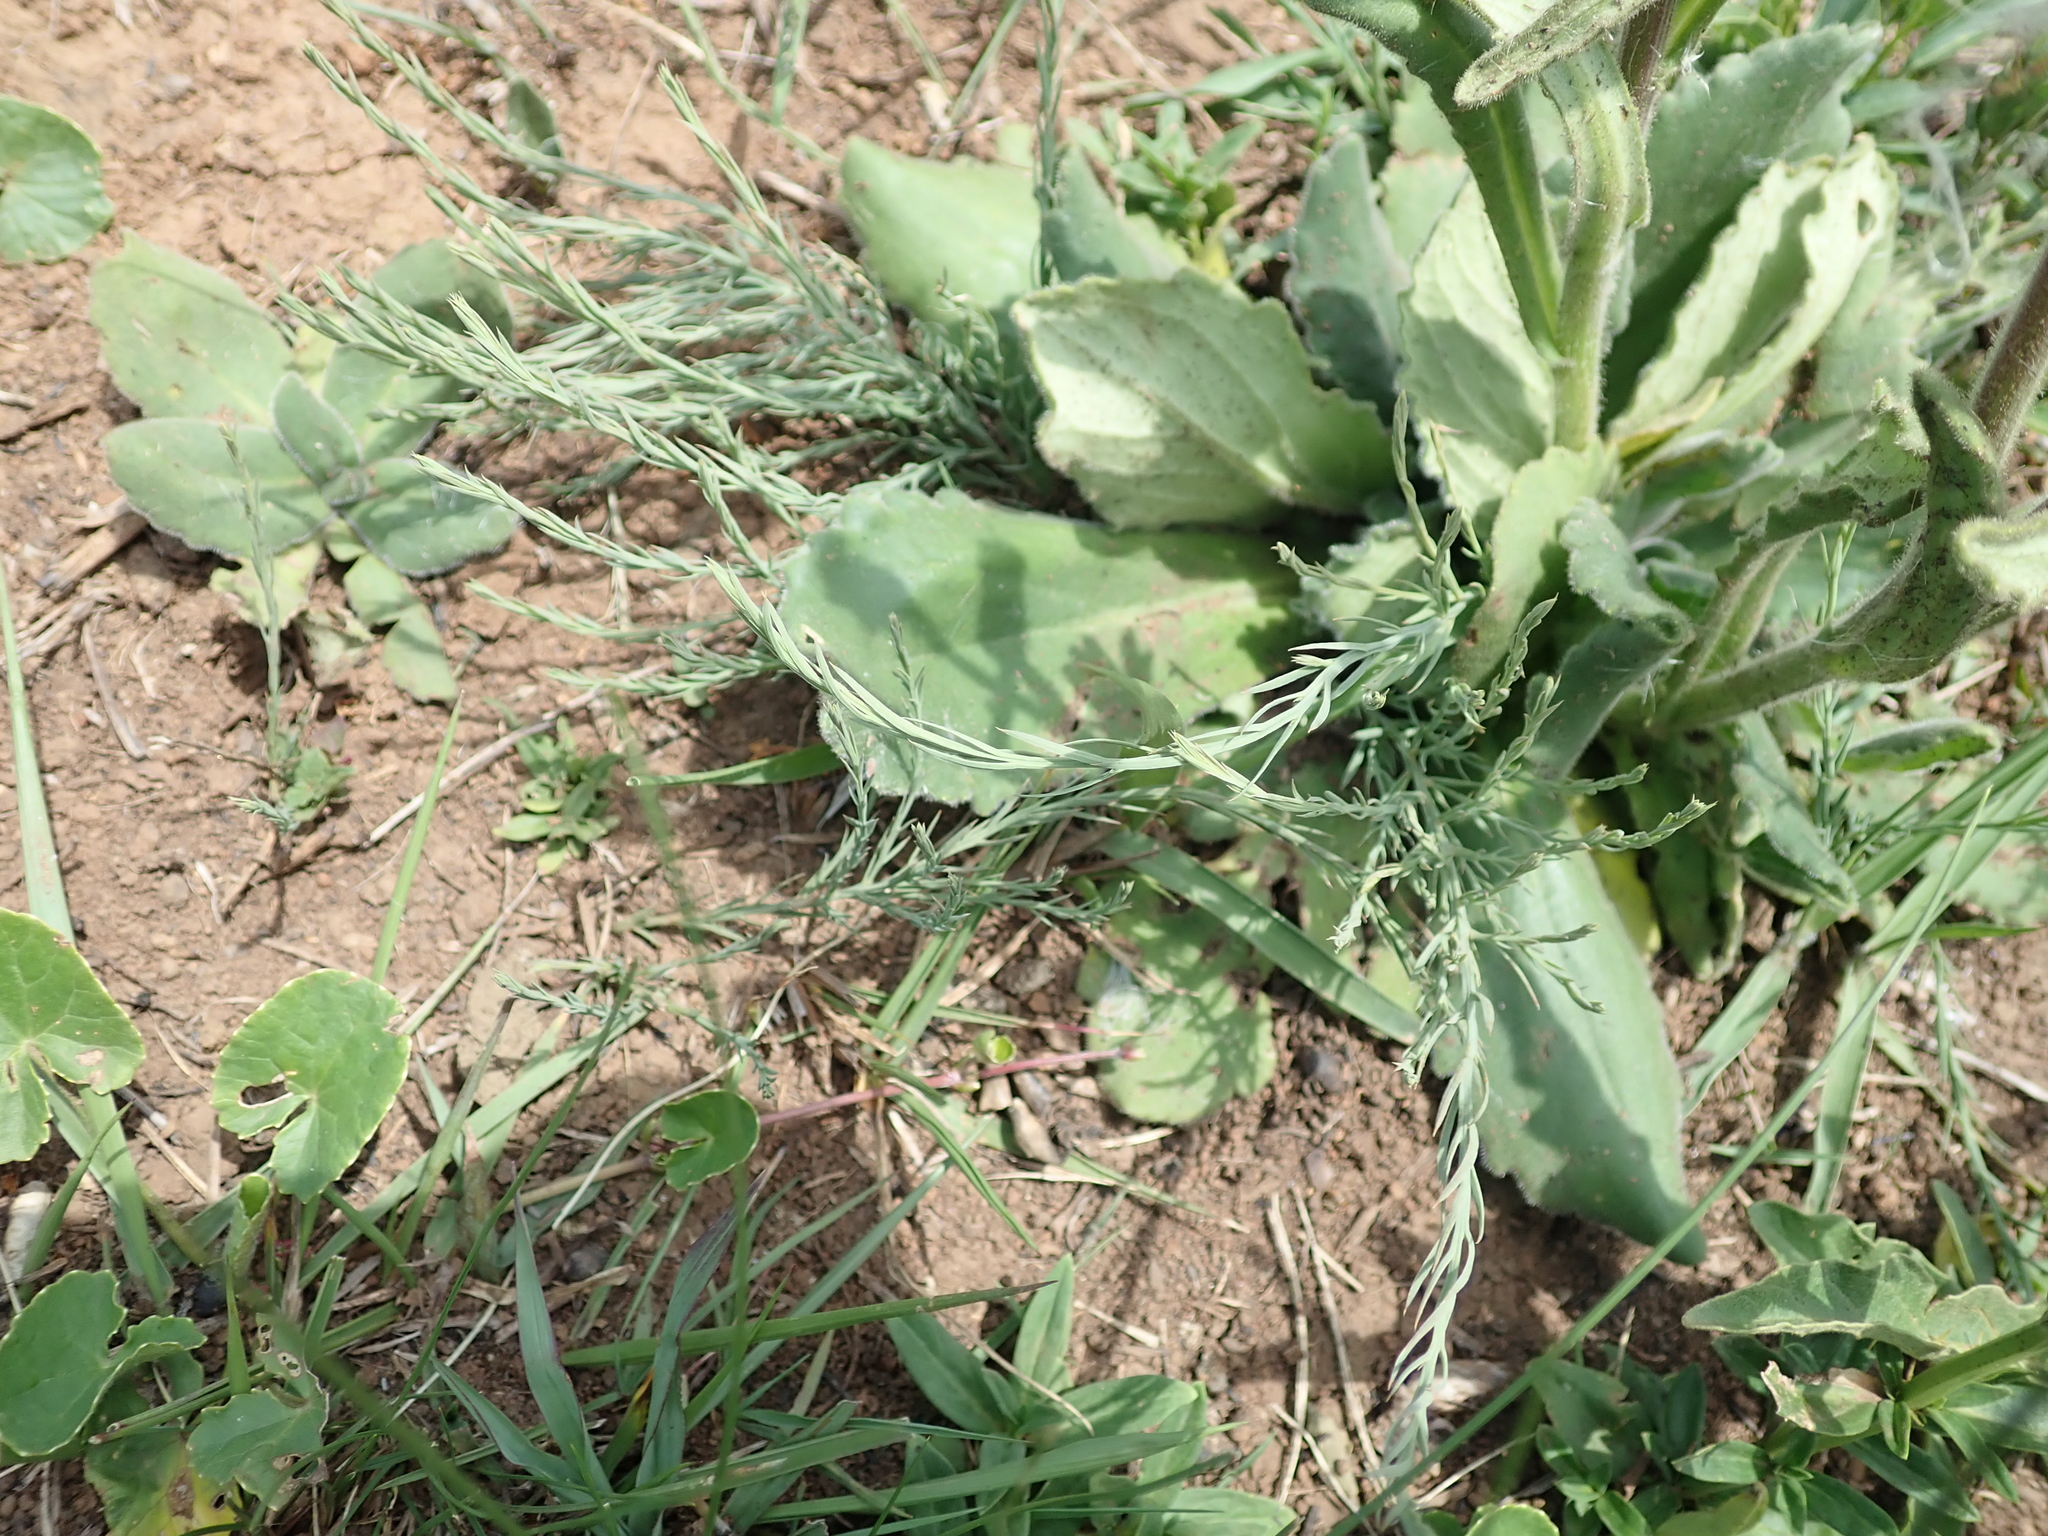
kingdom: Plantae
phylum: Tracheophyta
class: Magnoliopsida
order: Asterales
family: Asteraceae
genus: Senecio
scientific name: Senecio speciosus
